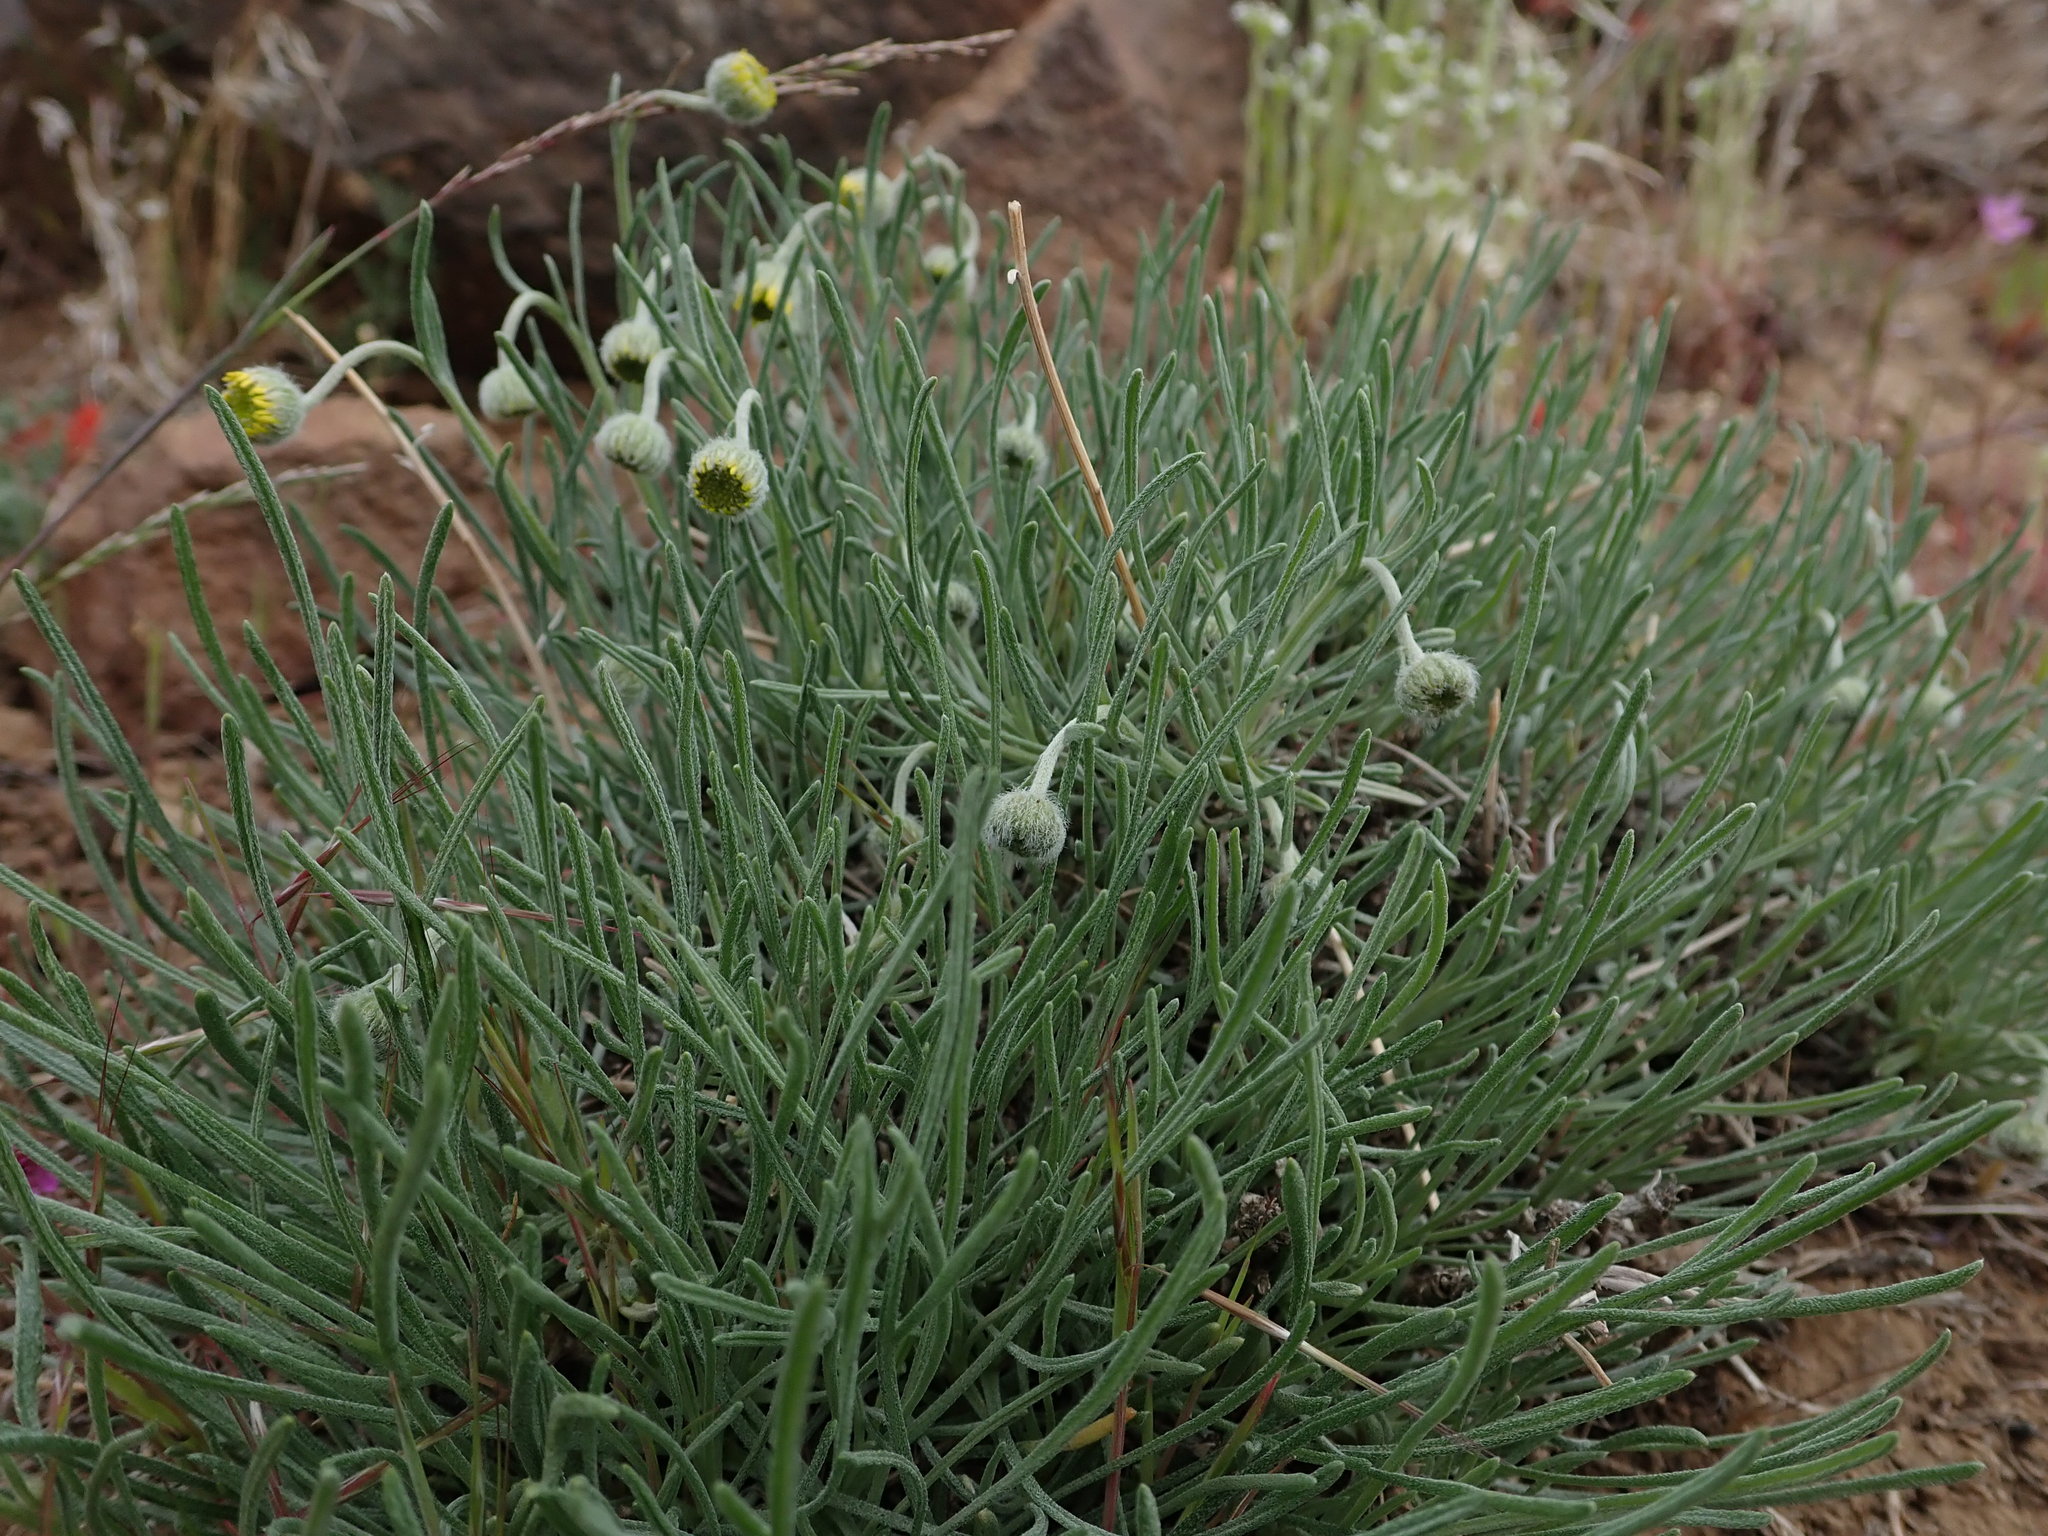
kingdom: Plantae
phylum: Tracheophyta
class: Magnoliopsida
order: Asterales
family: Asteraceae
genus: Erigeron
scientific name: Erigeron linearis
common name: Desert yellow fleabane
